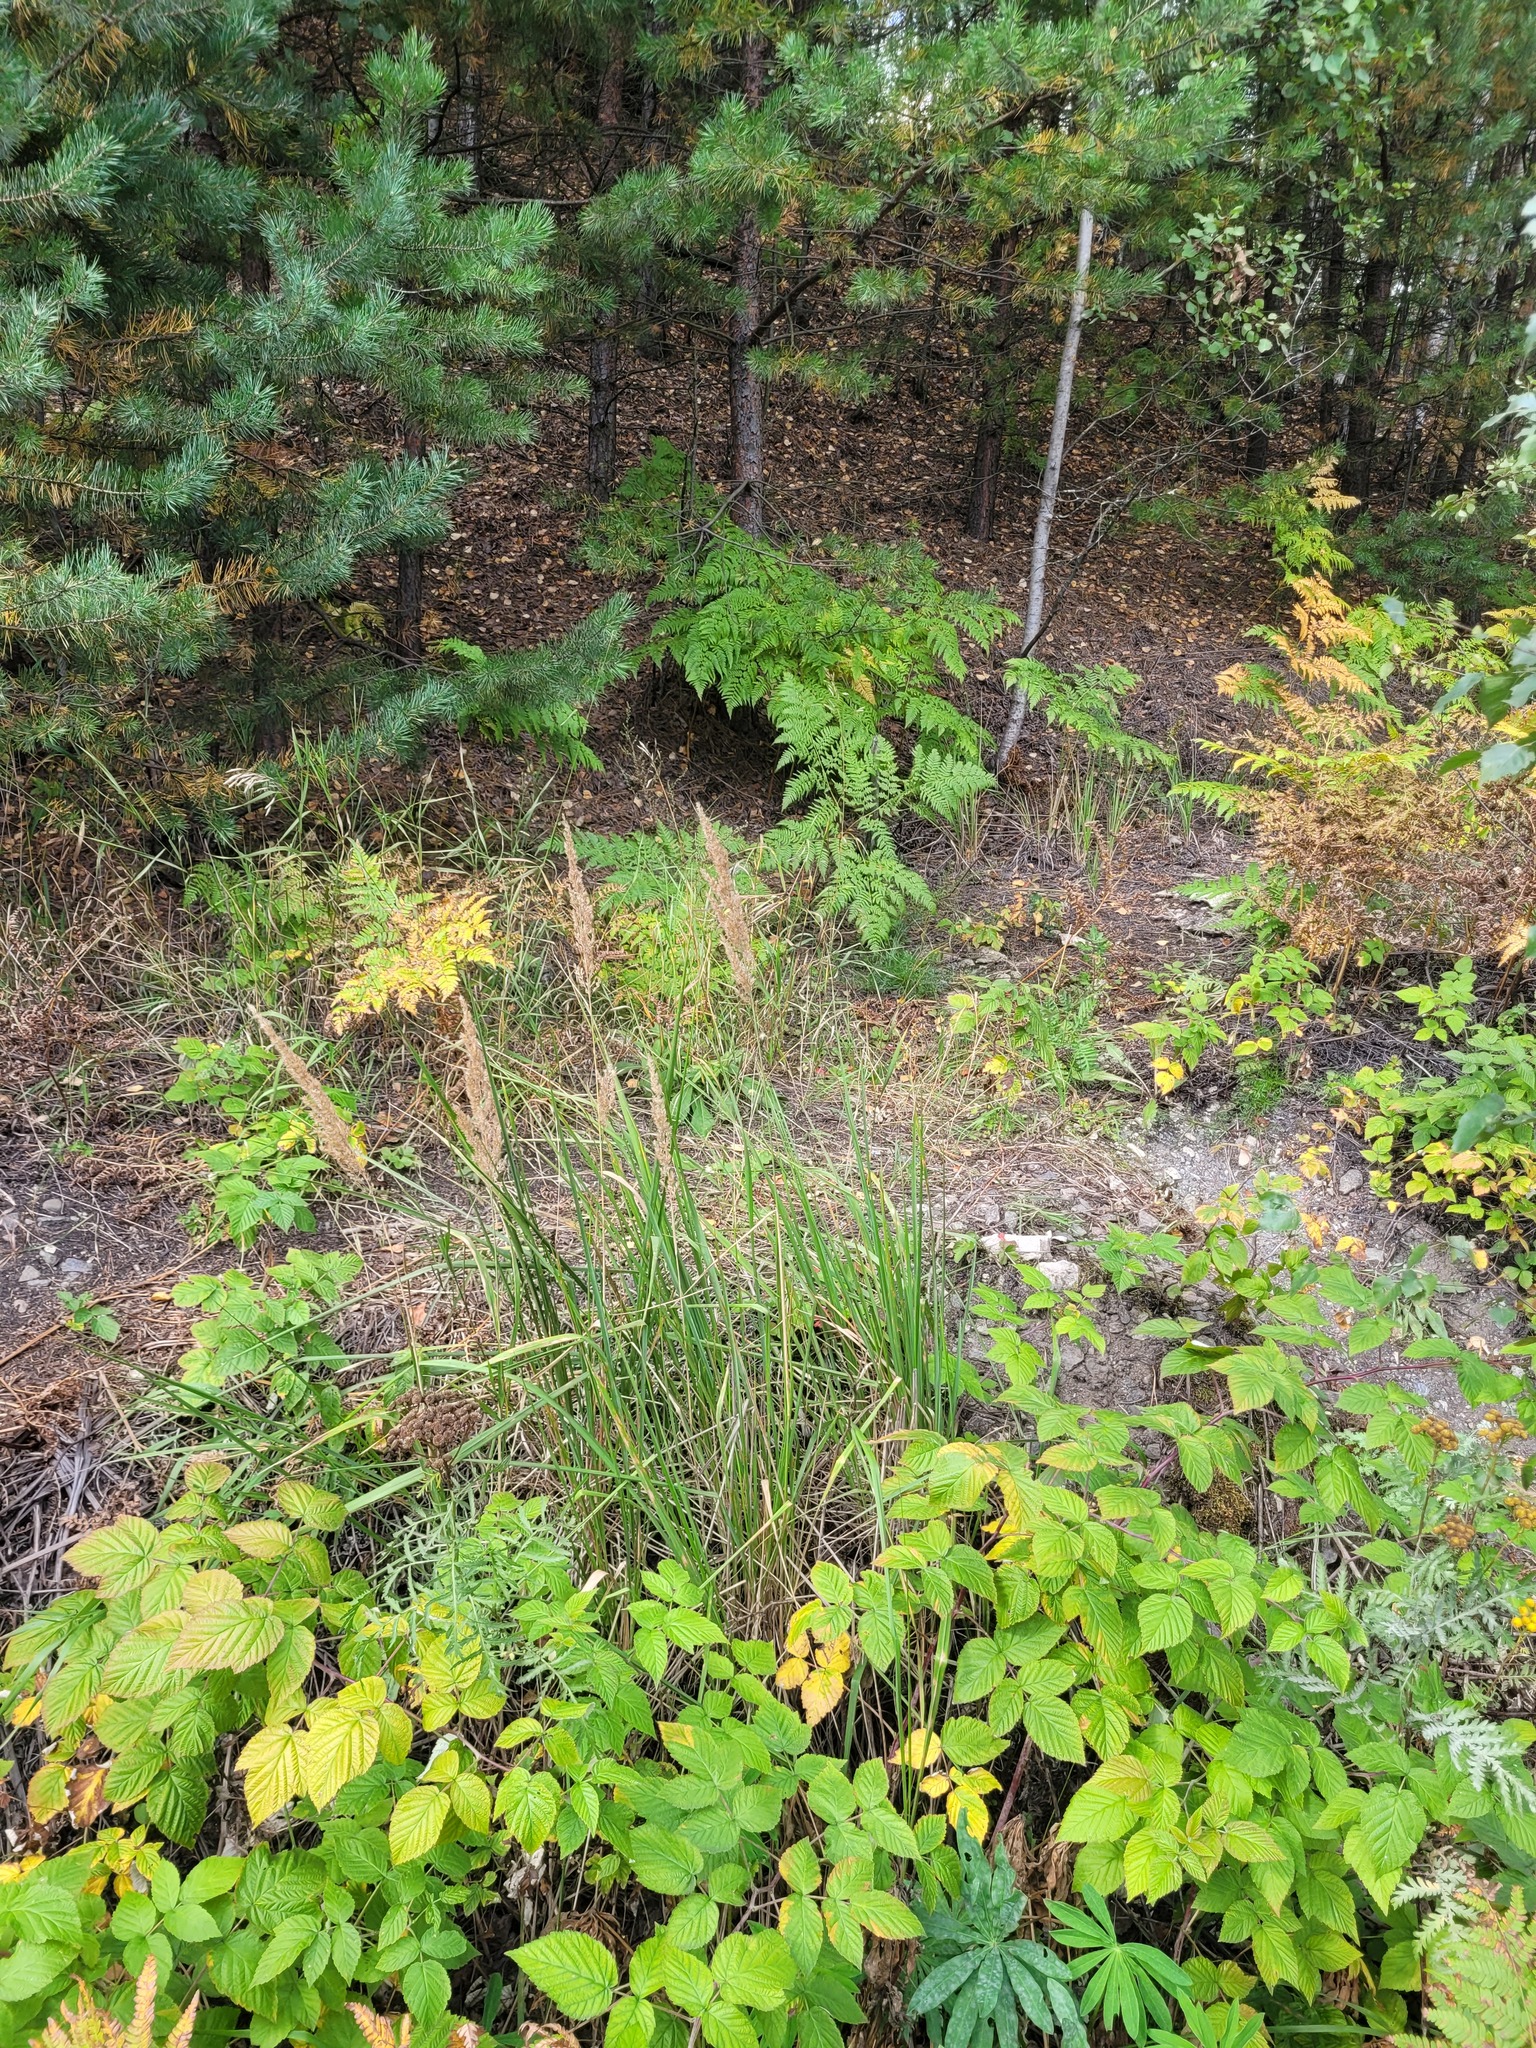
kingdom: Plantae
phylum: Tracheophyta
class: Liliopsida
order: Poales
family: Poaceae
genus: Calamagrostis
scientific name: Calamagrostis epigejos
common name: Wood small-reed
